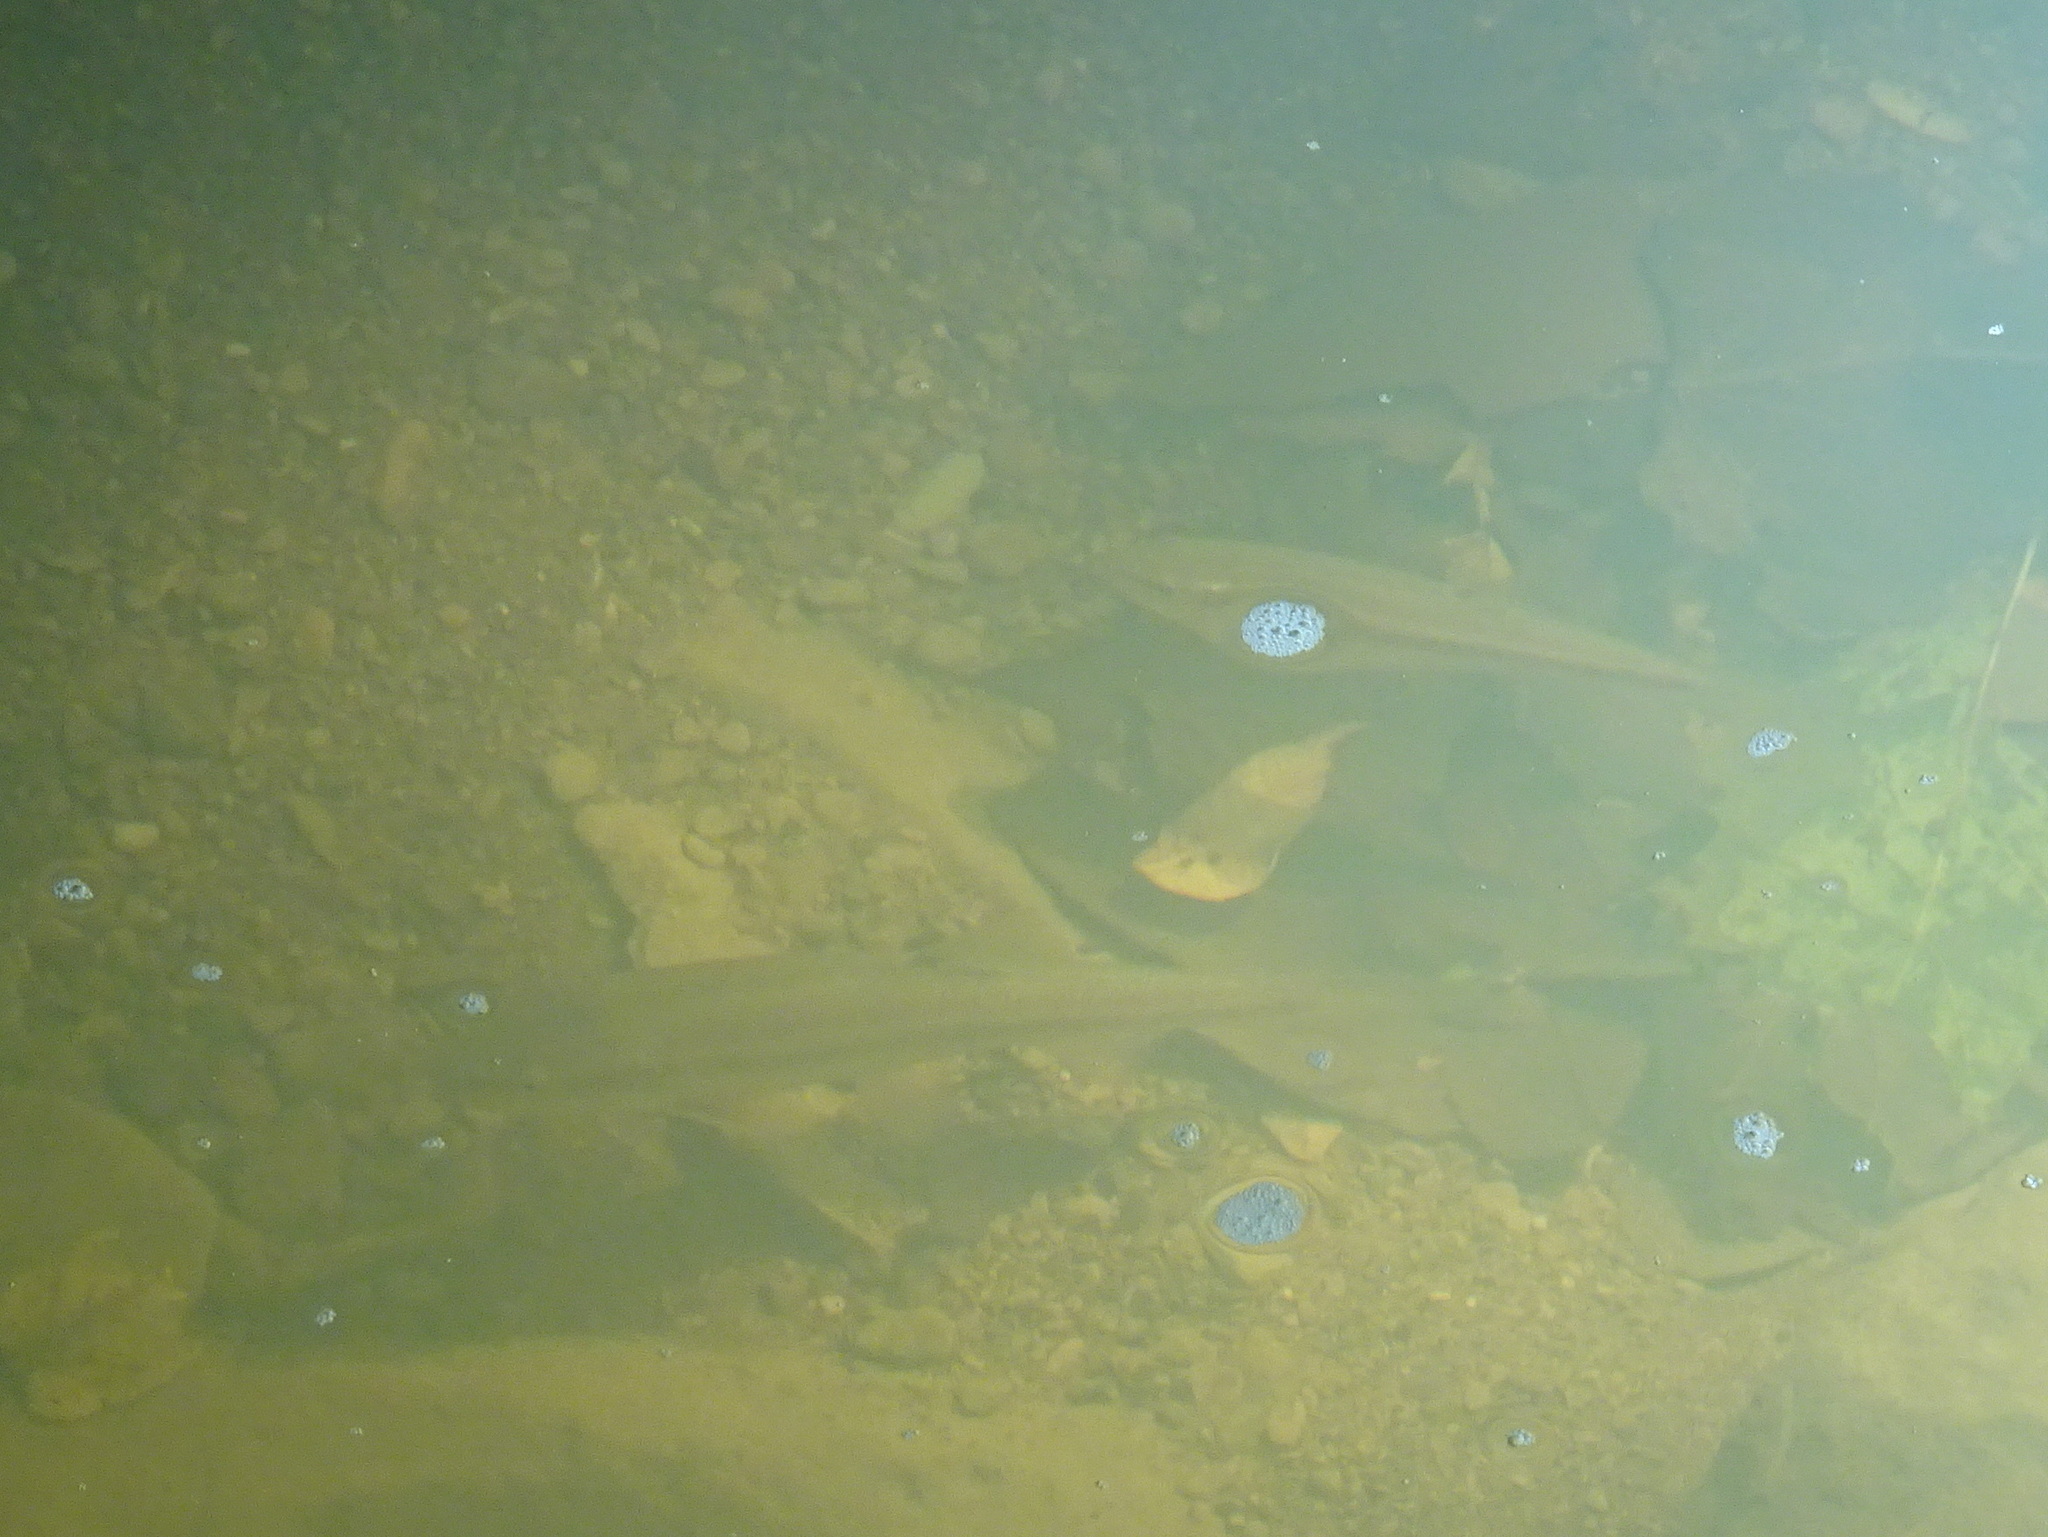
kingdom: Animalia
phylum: Chordata
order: Cypriniformes
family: Cyprinidae
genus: Semotilus
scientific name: Semotilus atromaculatus
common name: Creek chub
